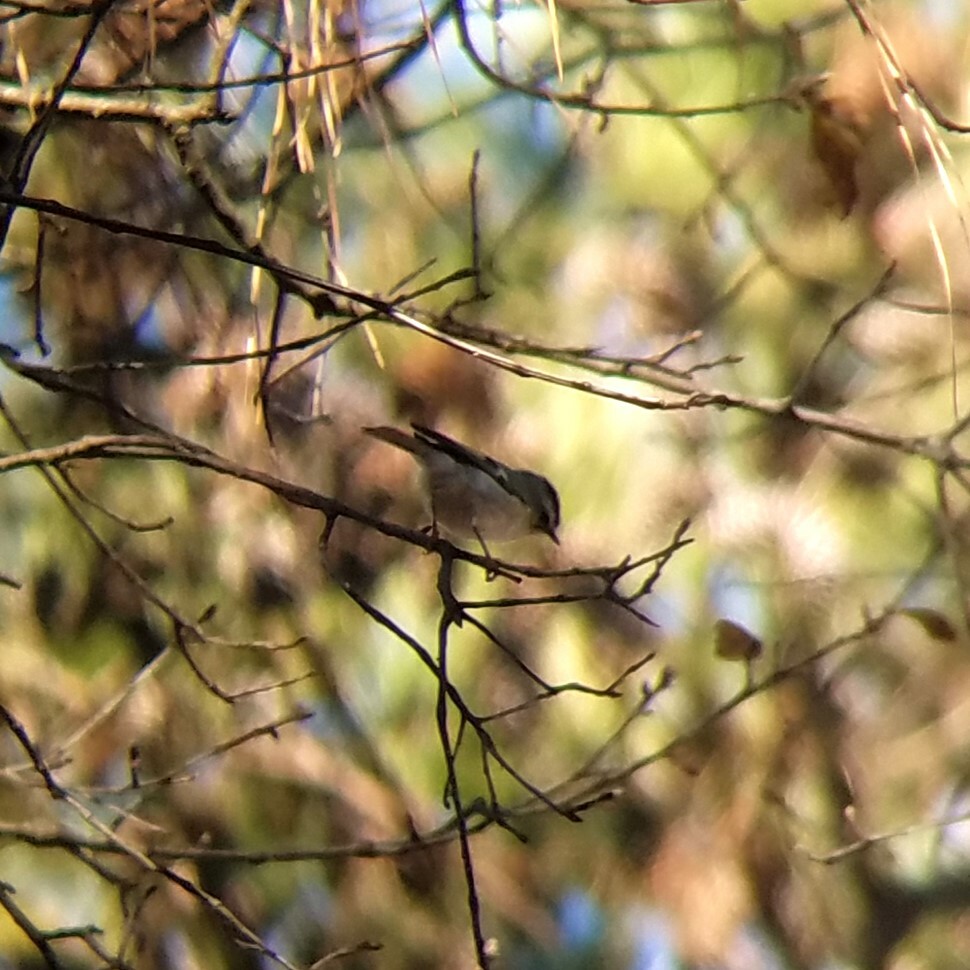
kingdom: Animalia
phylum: Chordata
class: Aves
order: Passeriformes
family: Regulidae
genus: Regulus
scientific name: Regulus satrapa
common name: Golden-crowned kinglet
